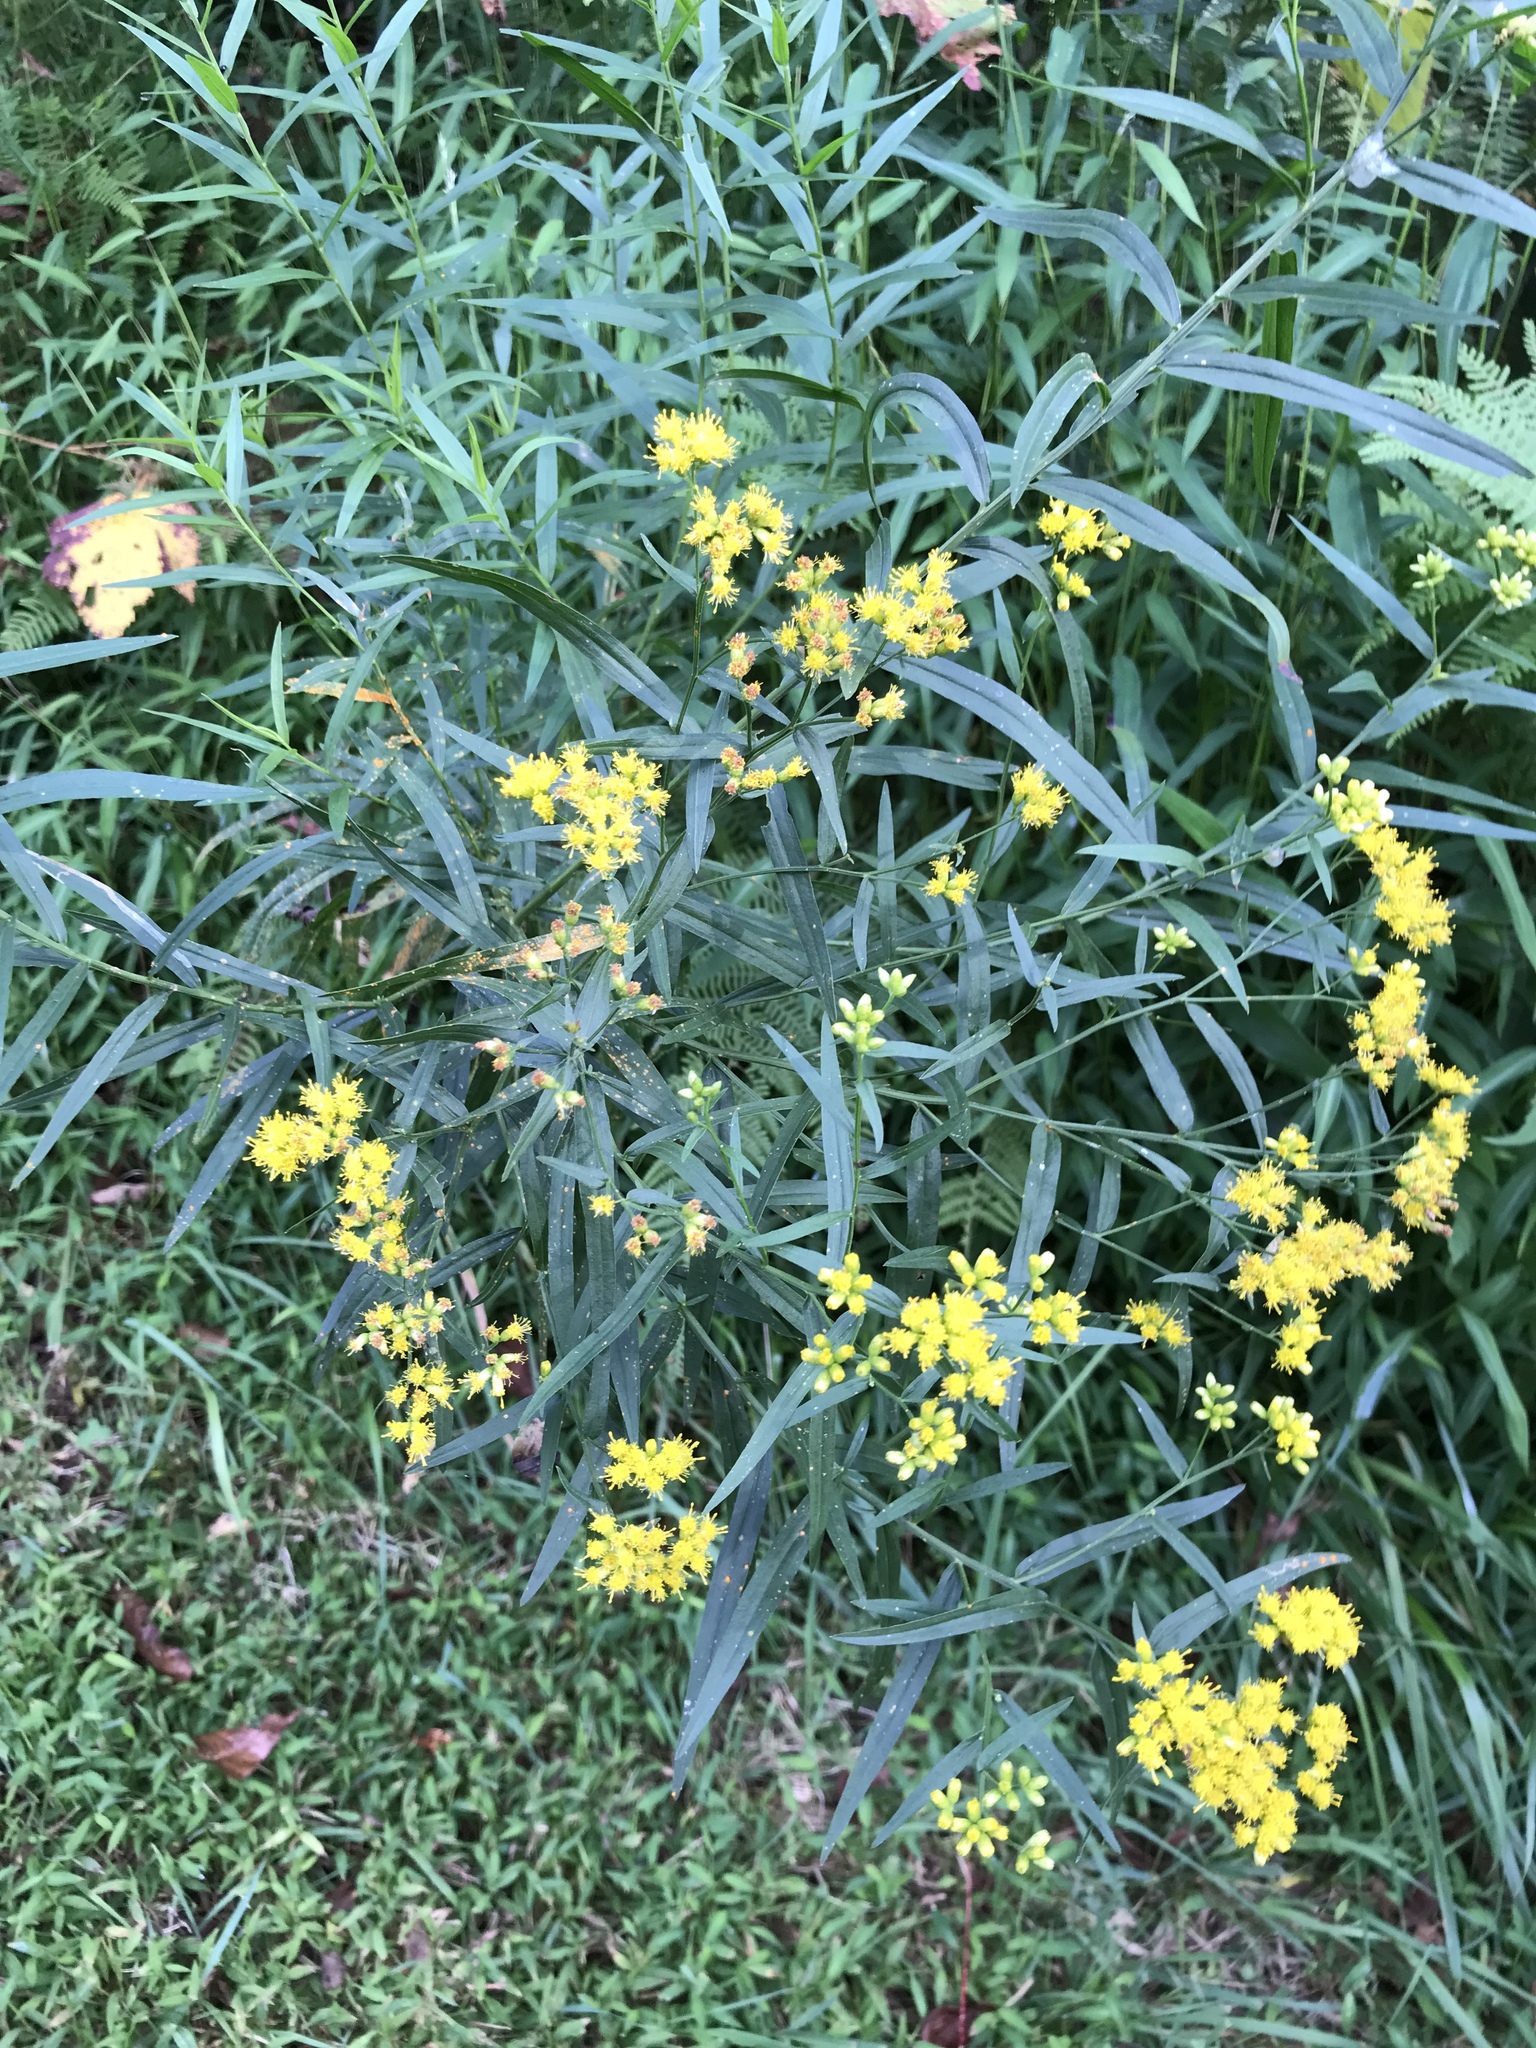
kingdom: Plantae
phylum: Tracheophyta
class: Magnoliopsida
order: Asterales
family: Asteraceae
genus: Euthamia
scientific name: Euthamia graminifolia
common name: Common goldentop
